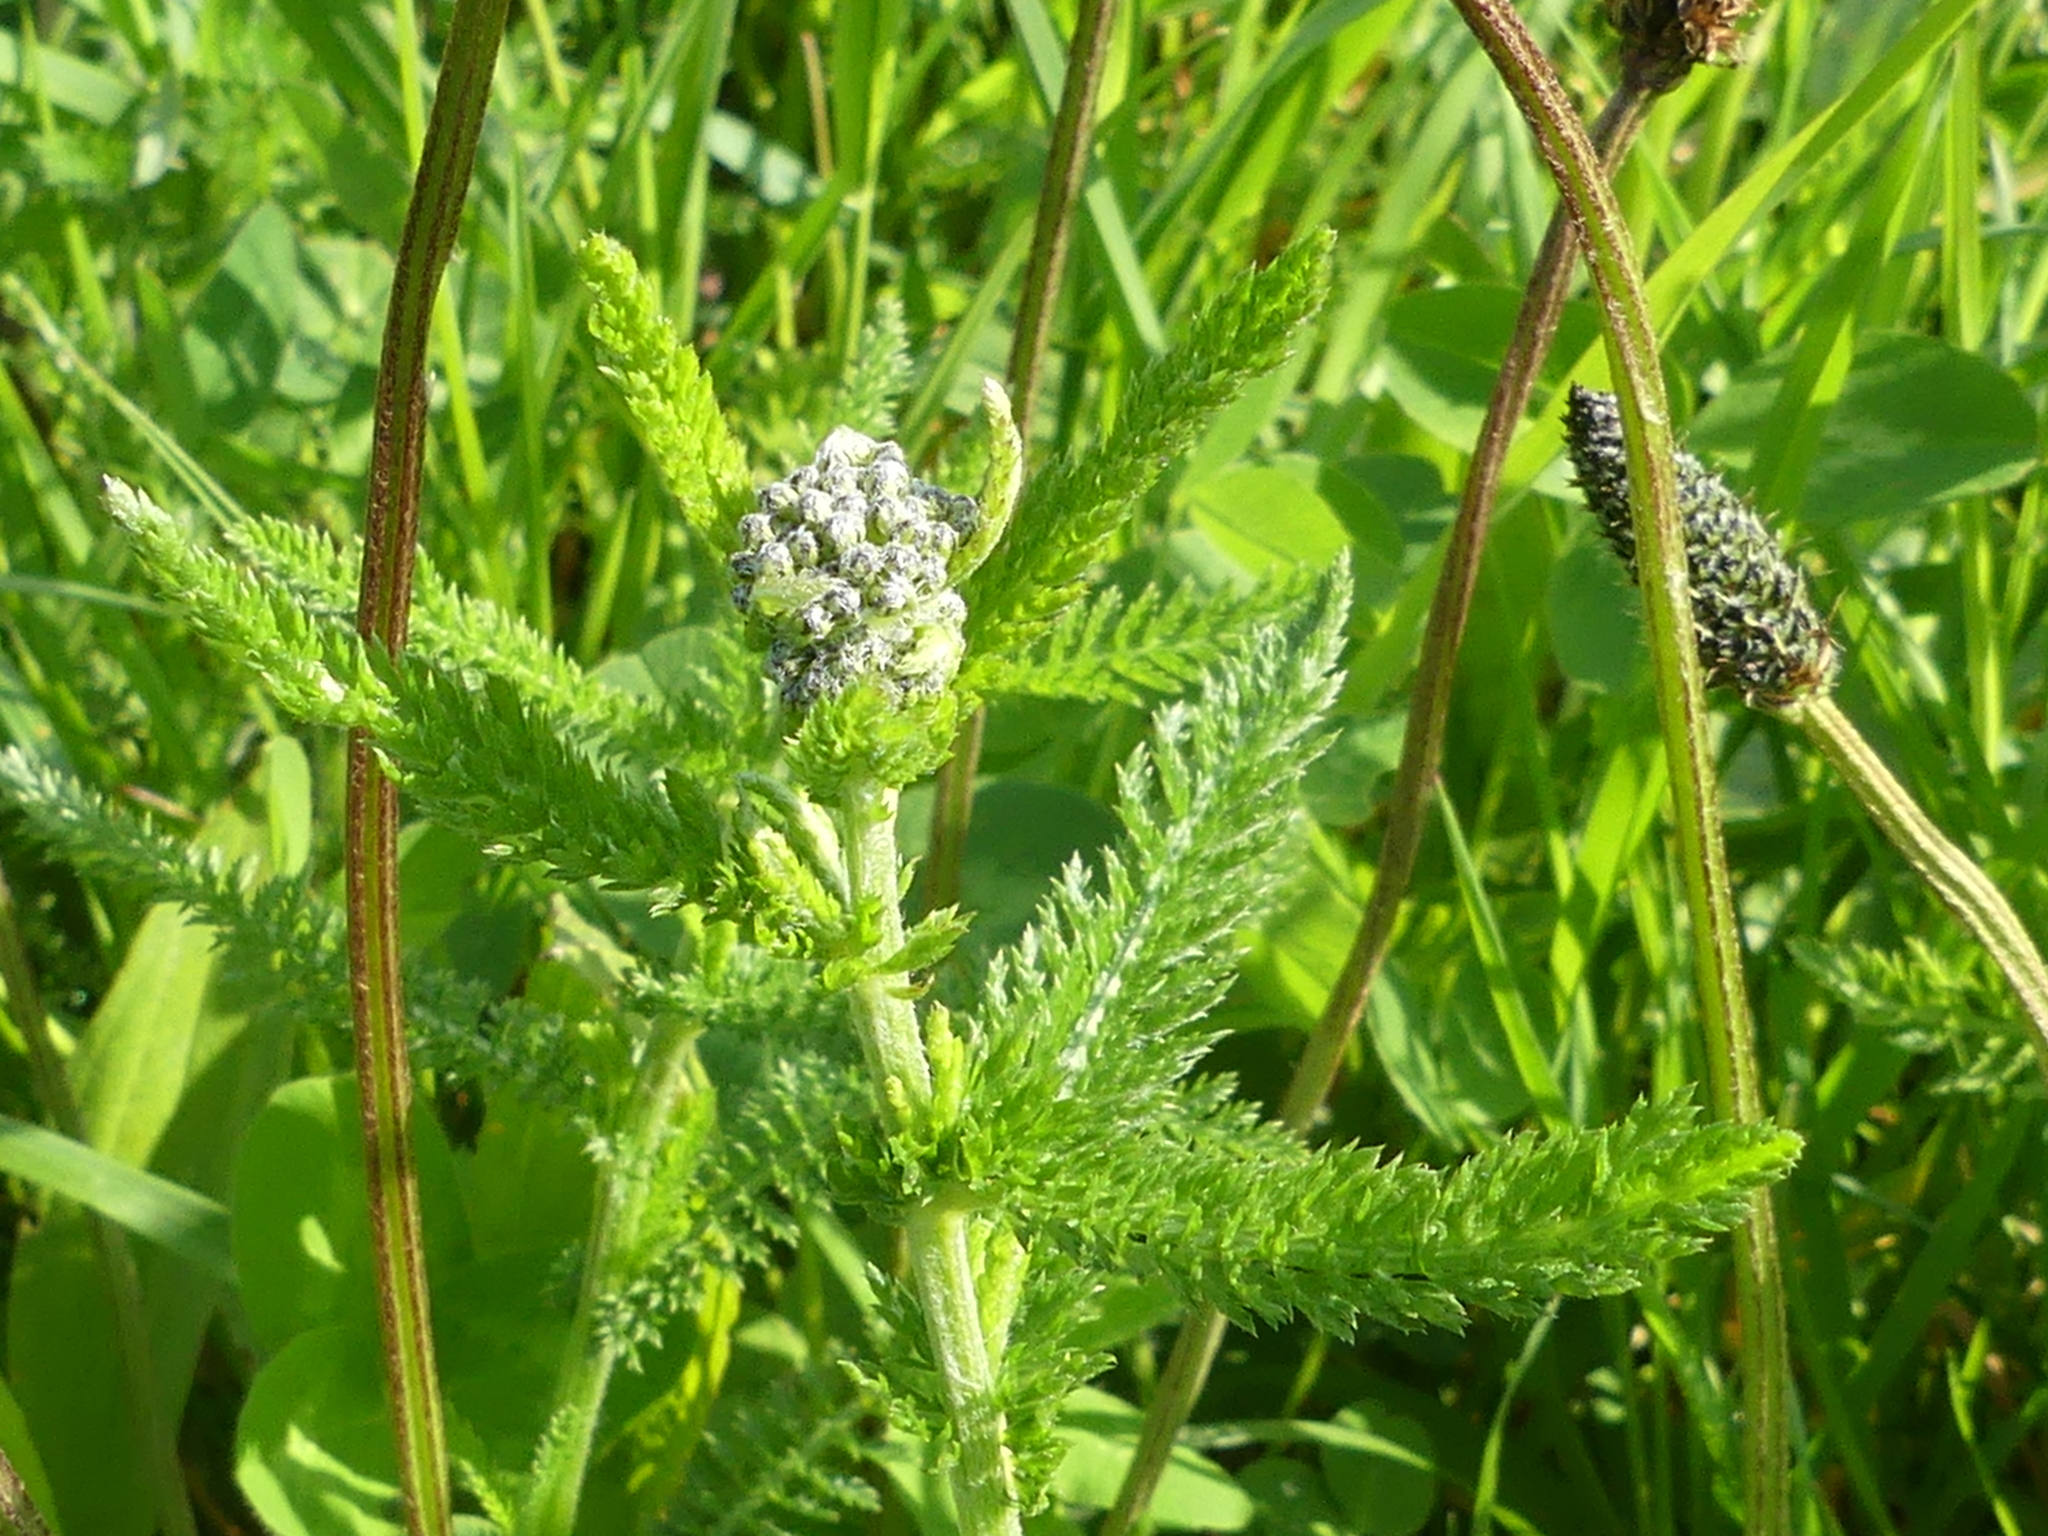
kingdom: Plantae
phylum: Tracheophyta
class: Magnoliopsida
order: Asterales
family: Asteraceae
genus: Achillea
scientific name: Achillea millefolium
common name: Yarrow
